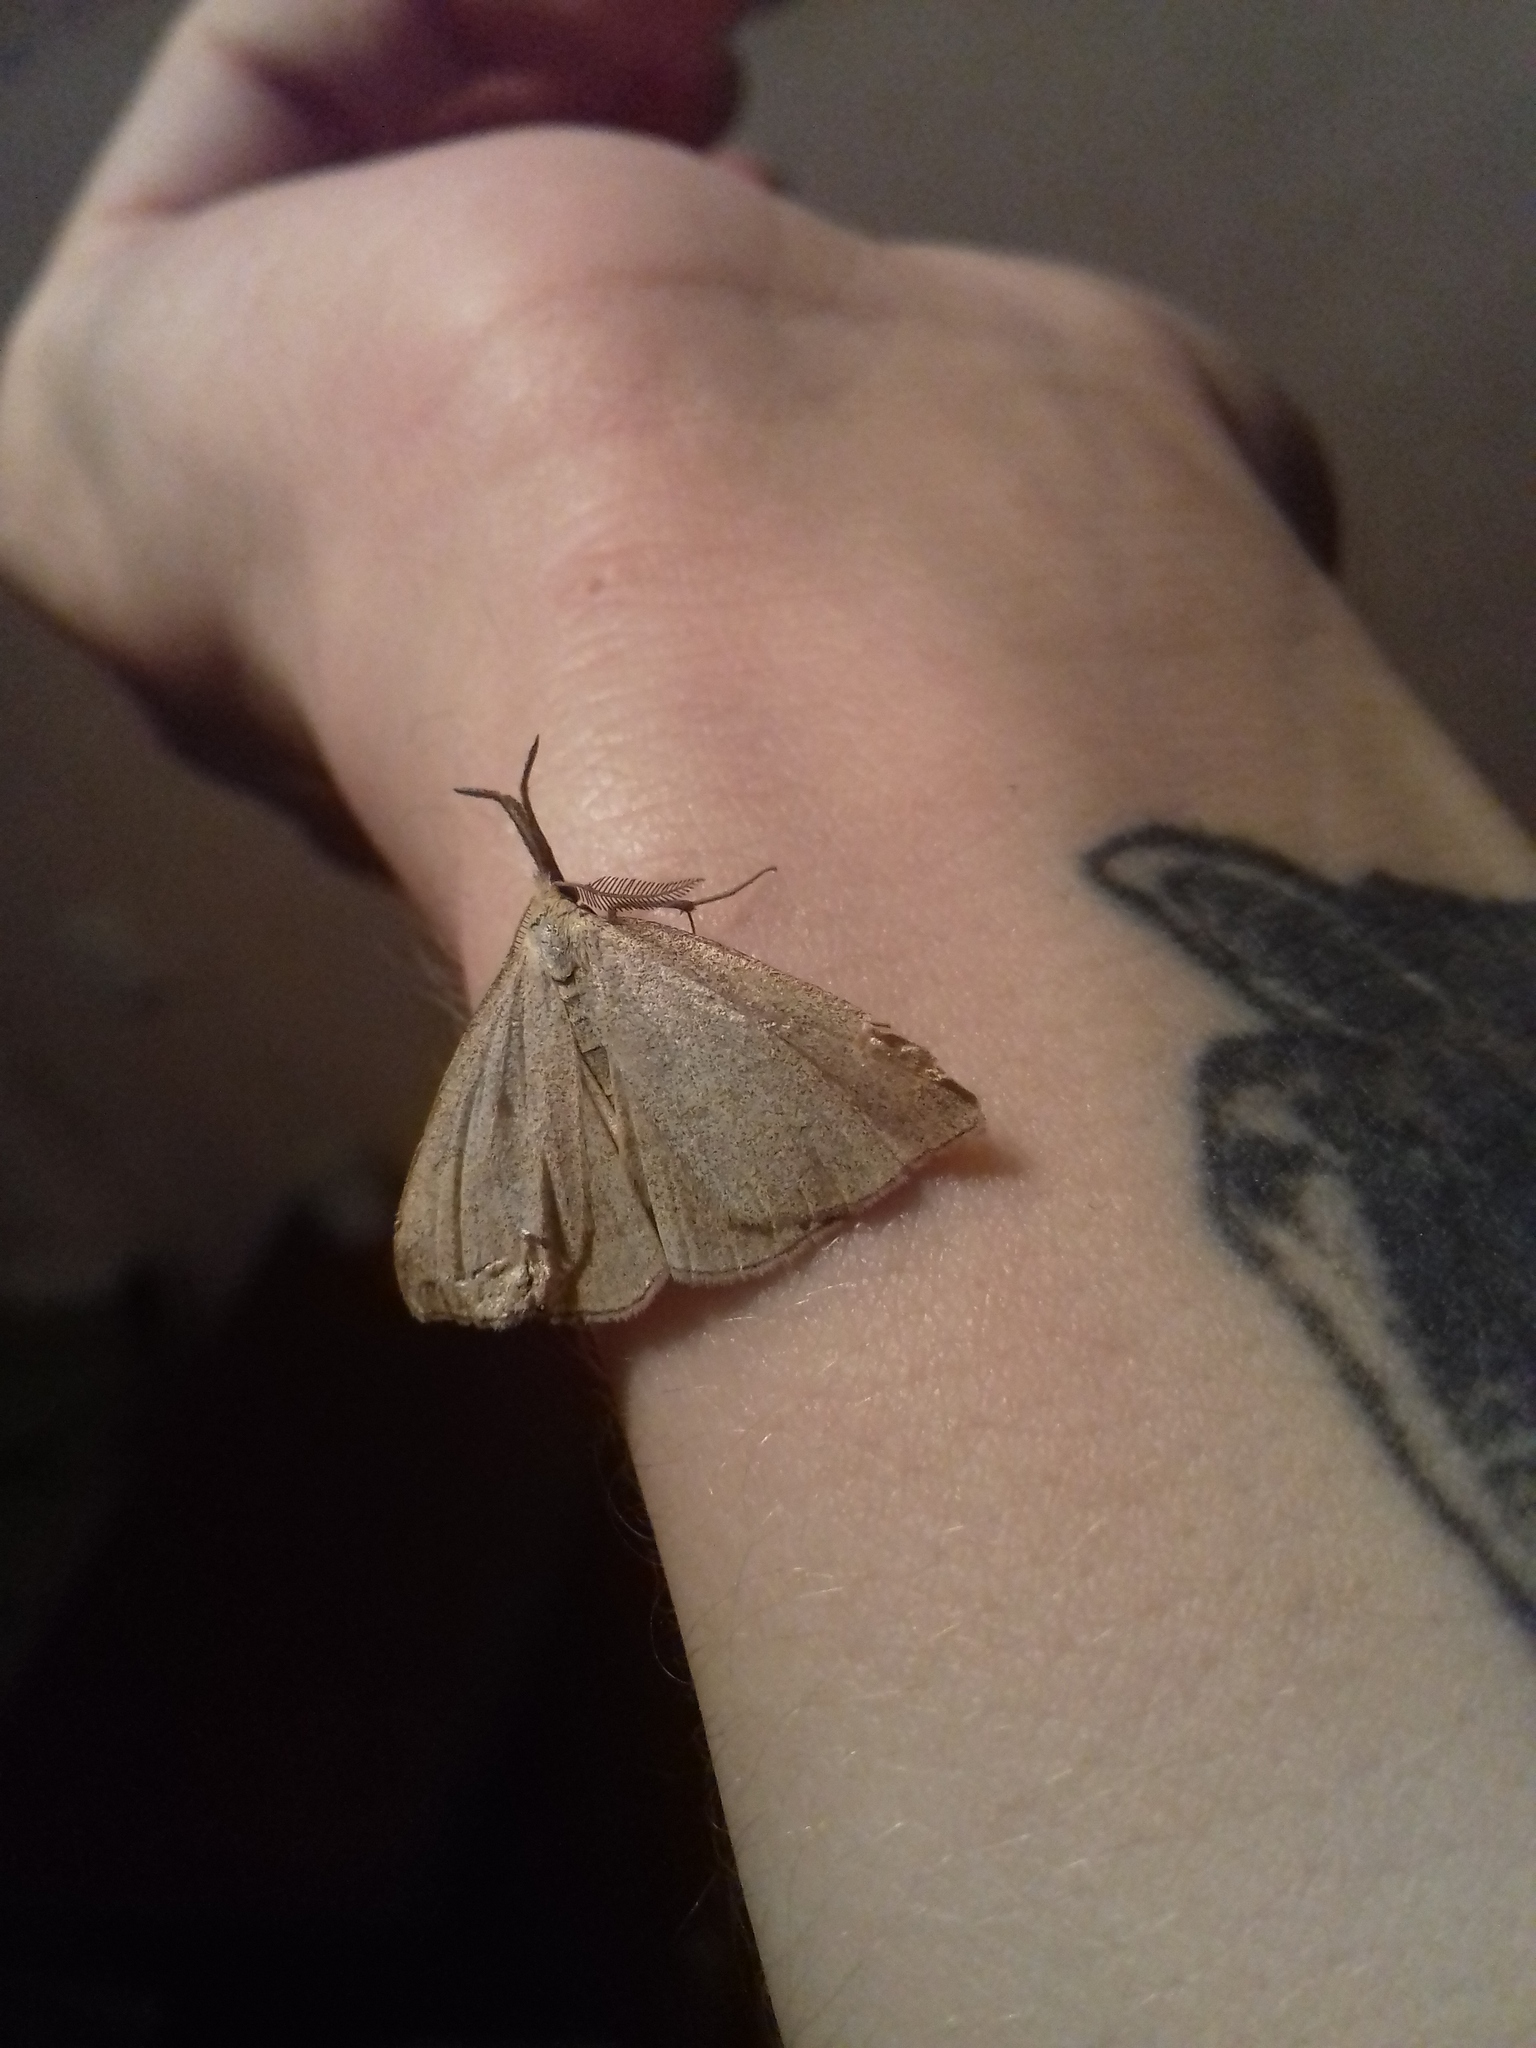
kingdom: Animalia
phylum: Arthropoda
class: Insecta
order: Lepidoptera
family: Erebidae
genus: Polypogon
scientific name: Polypogon tentacularia
